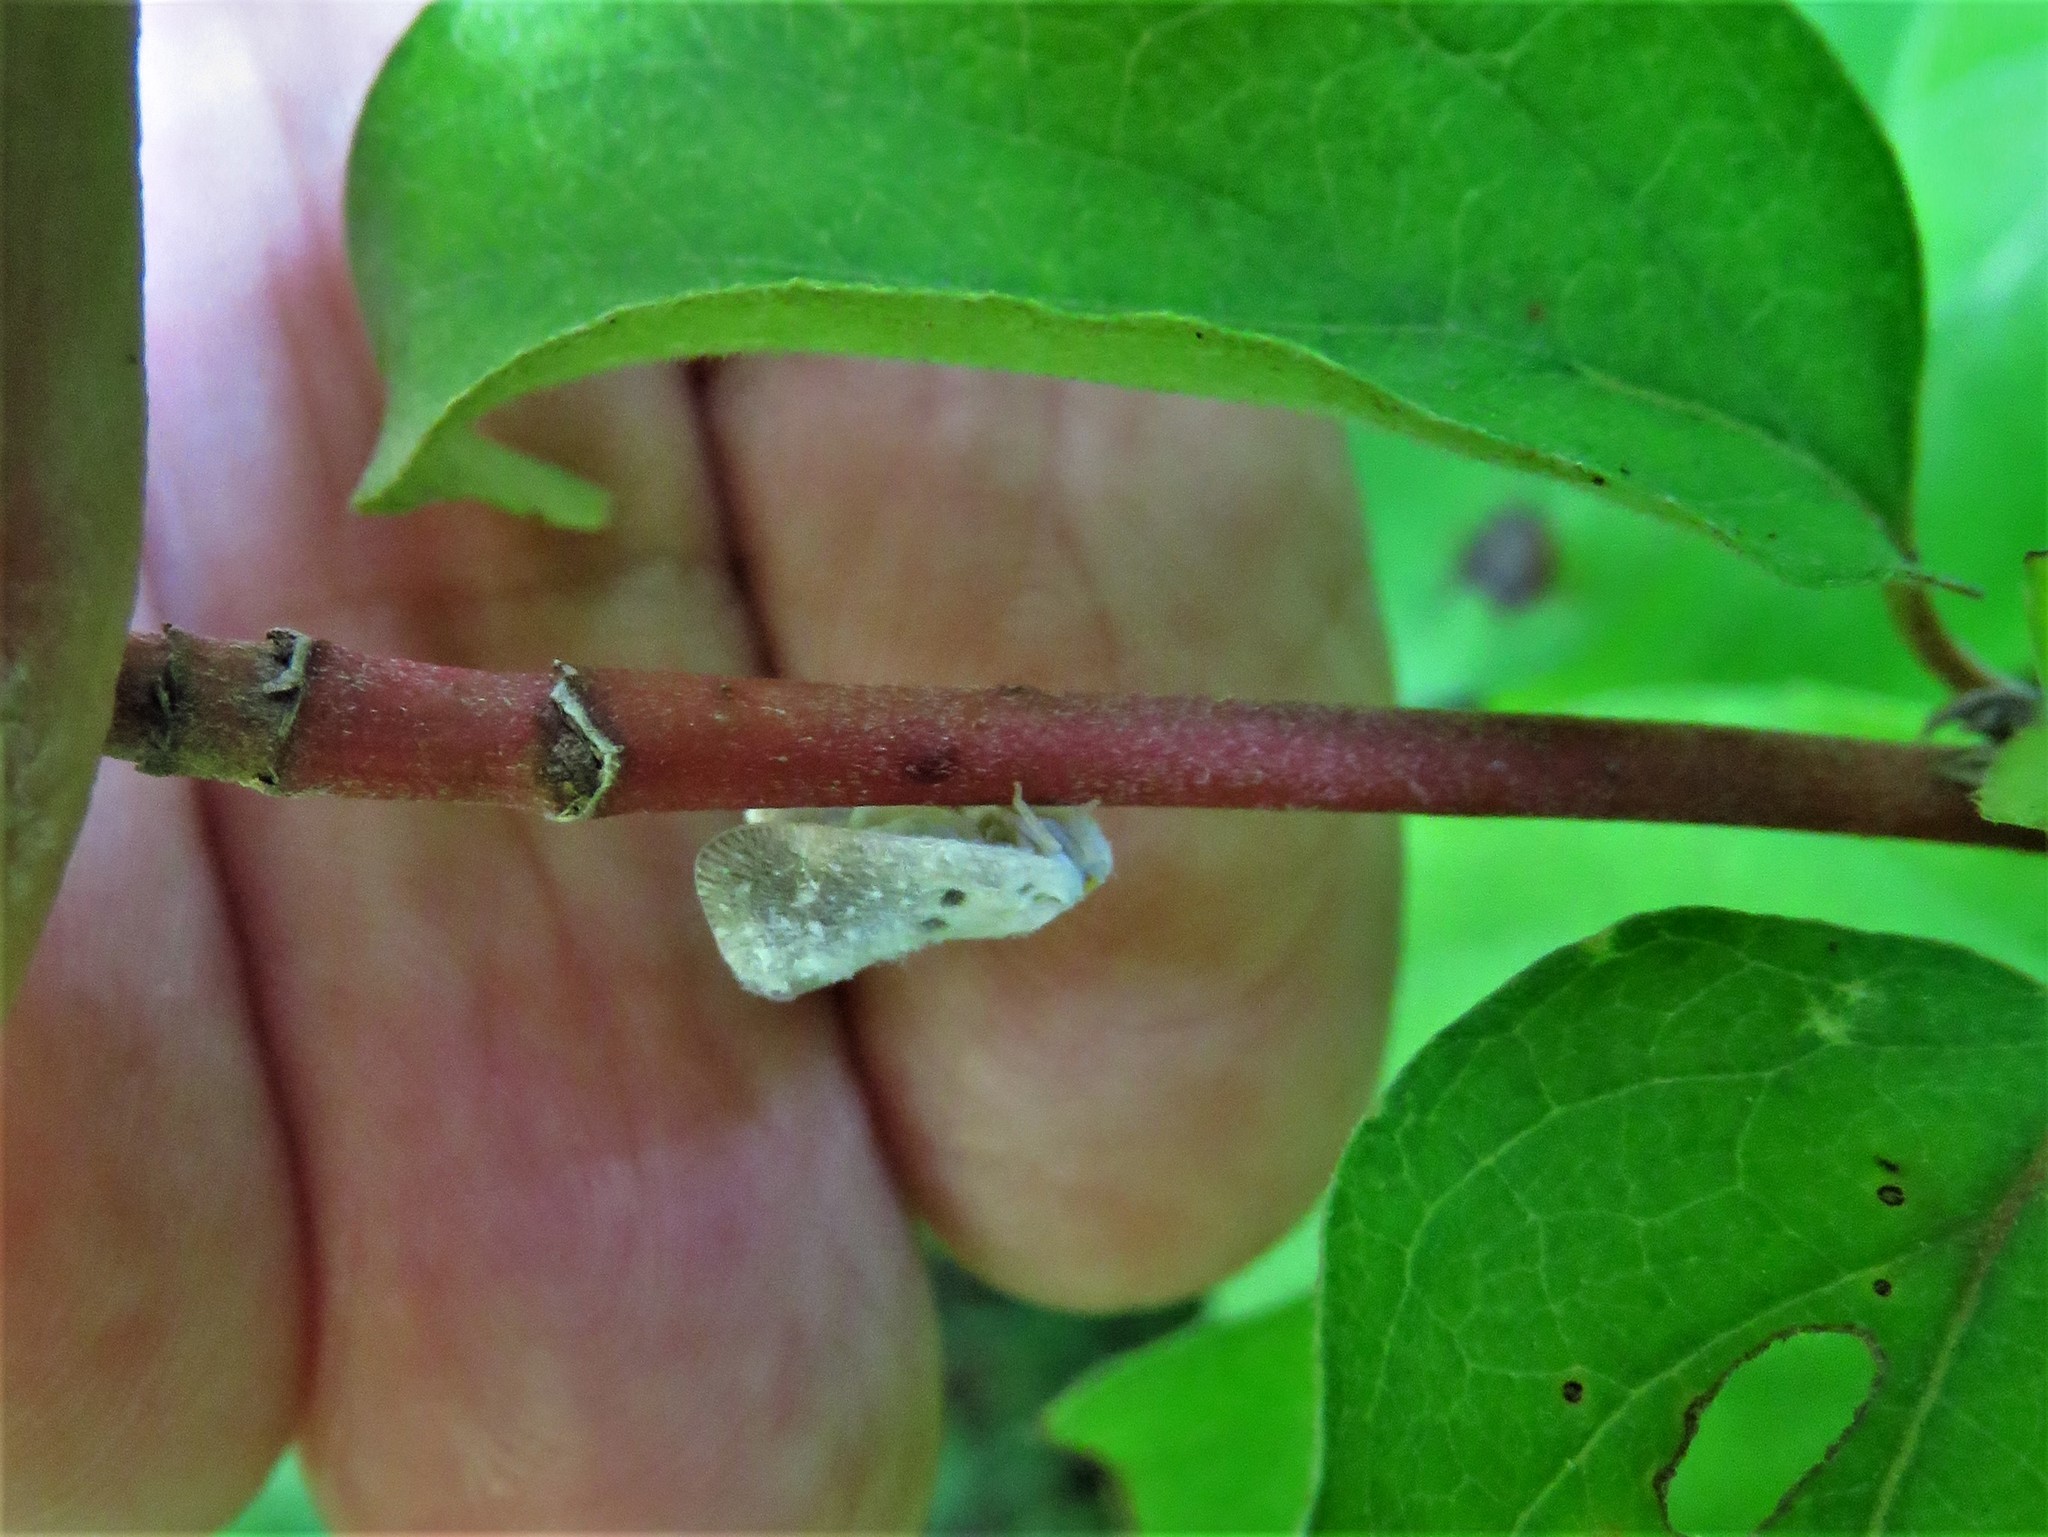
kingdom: Animalia
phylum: Arthropoda
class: Insecta
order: Hemiptera
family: Flatidae
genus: Metcalfa
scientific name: Metcalfa pruinosa
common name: Citrus flatid planthopper
